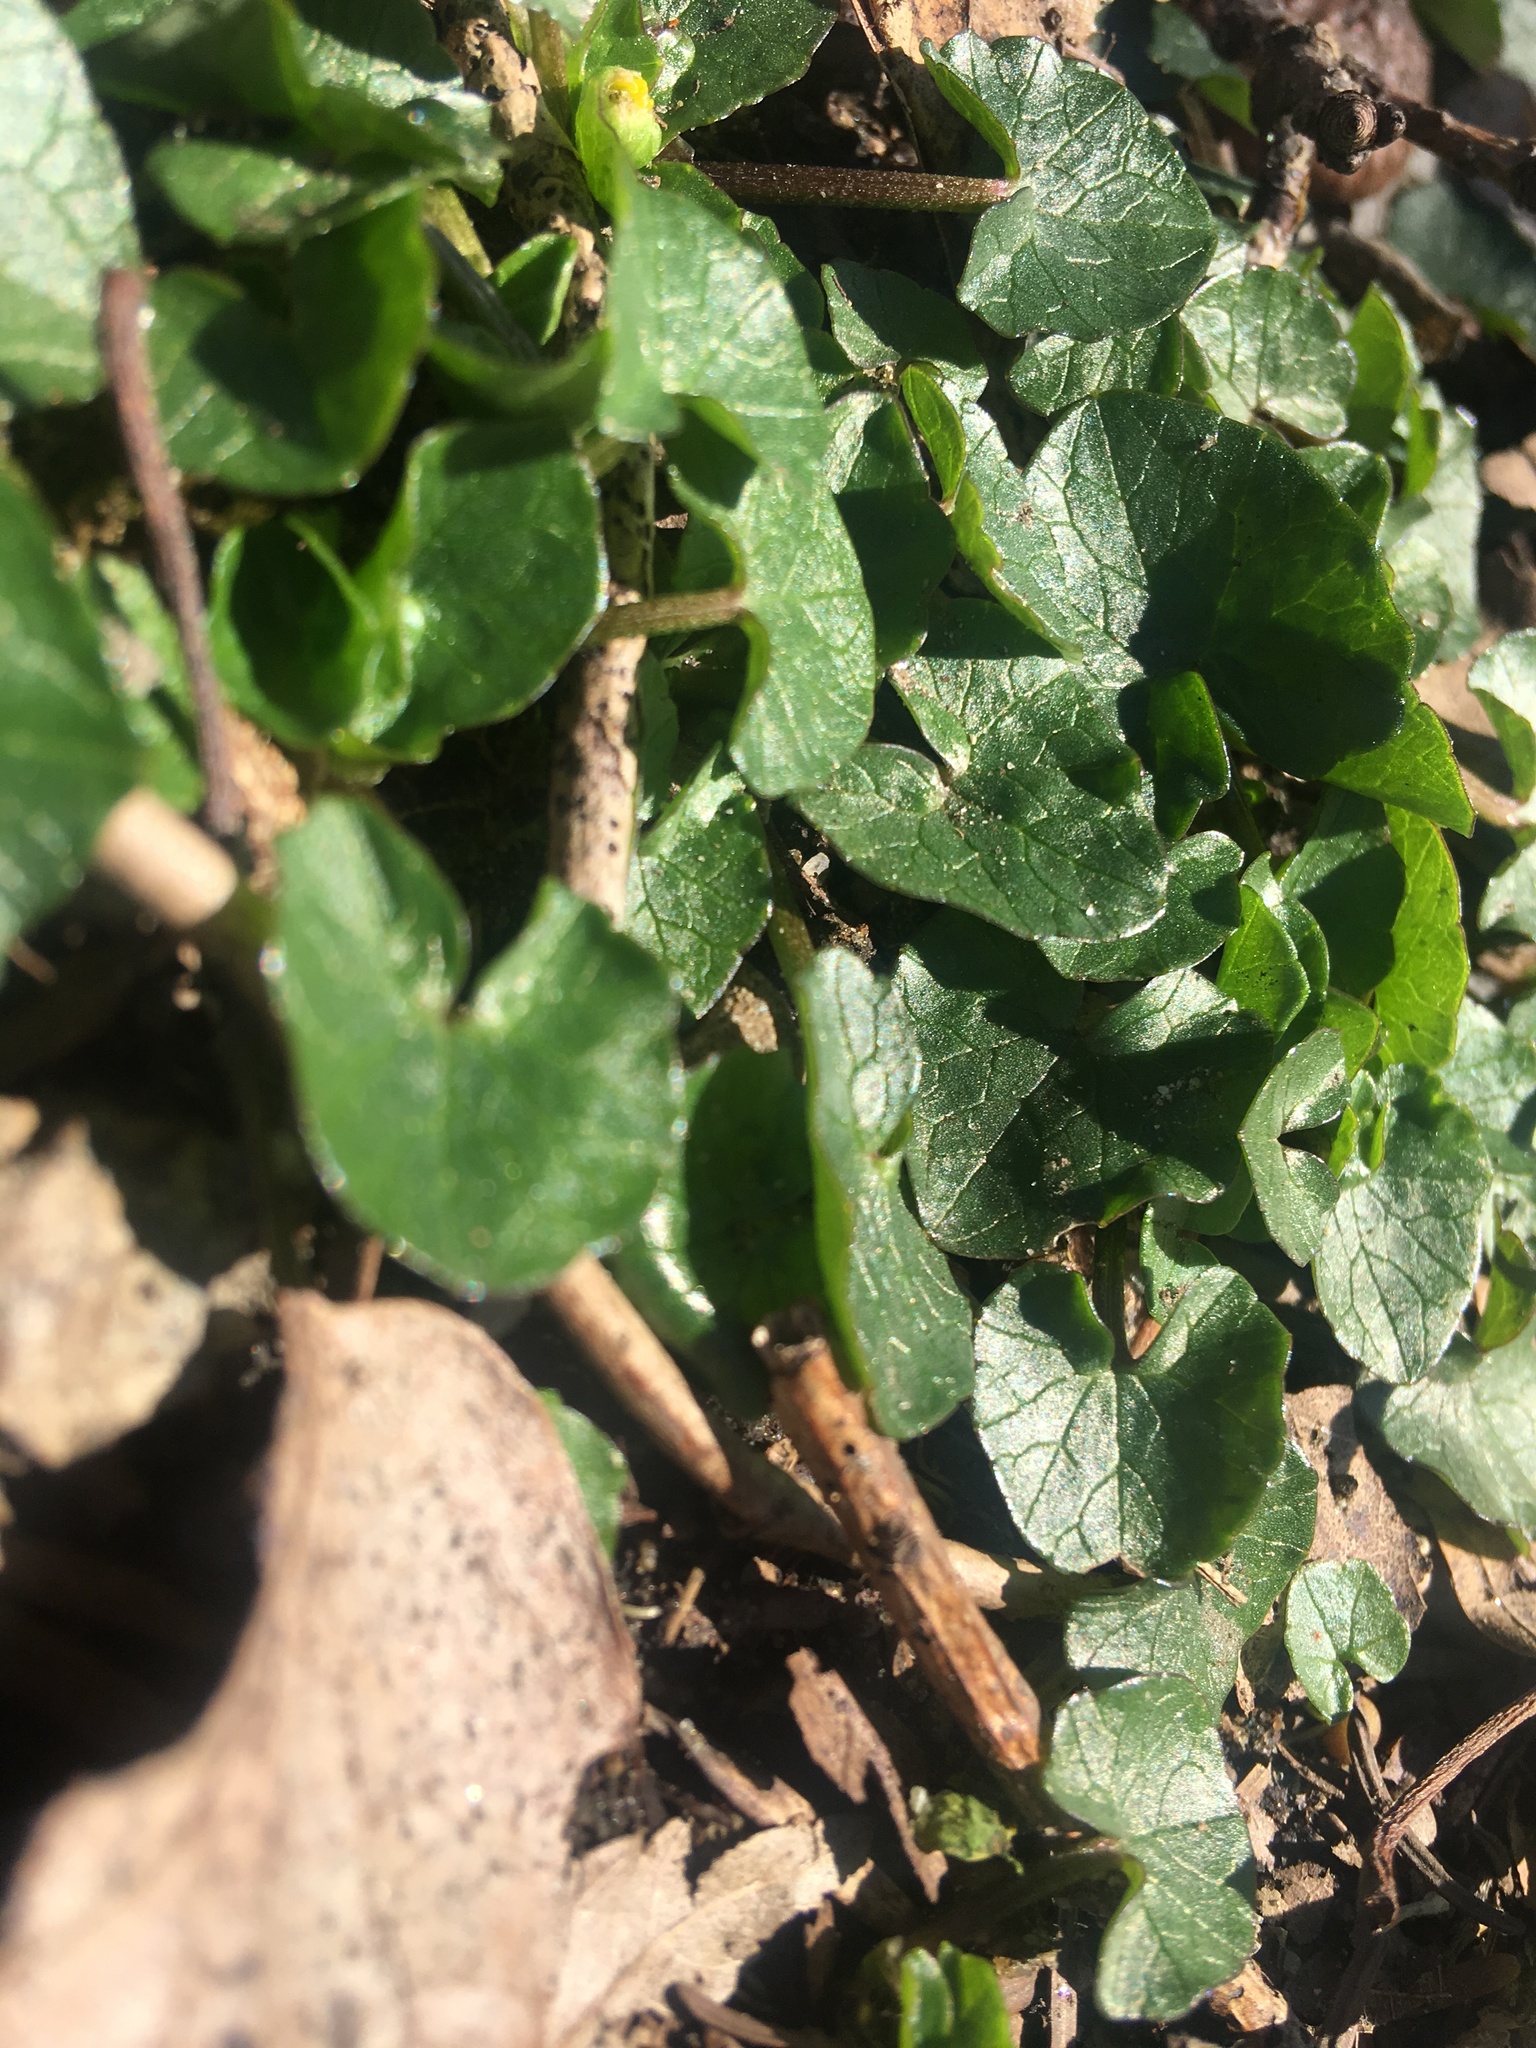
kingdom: Plantae
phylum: Tracheophyta
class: Magnoliopsida
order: Ranunculales
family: Ranunculaceae
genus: Ficaria
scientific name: Ficaria verna
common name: Lesser celandine
